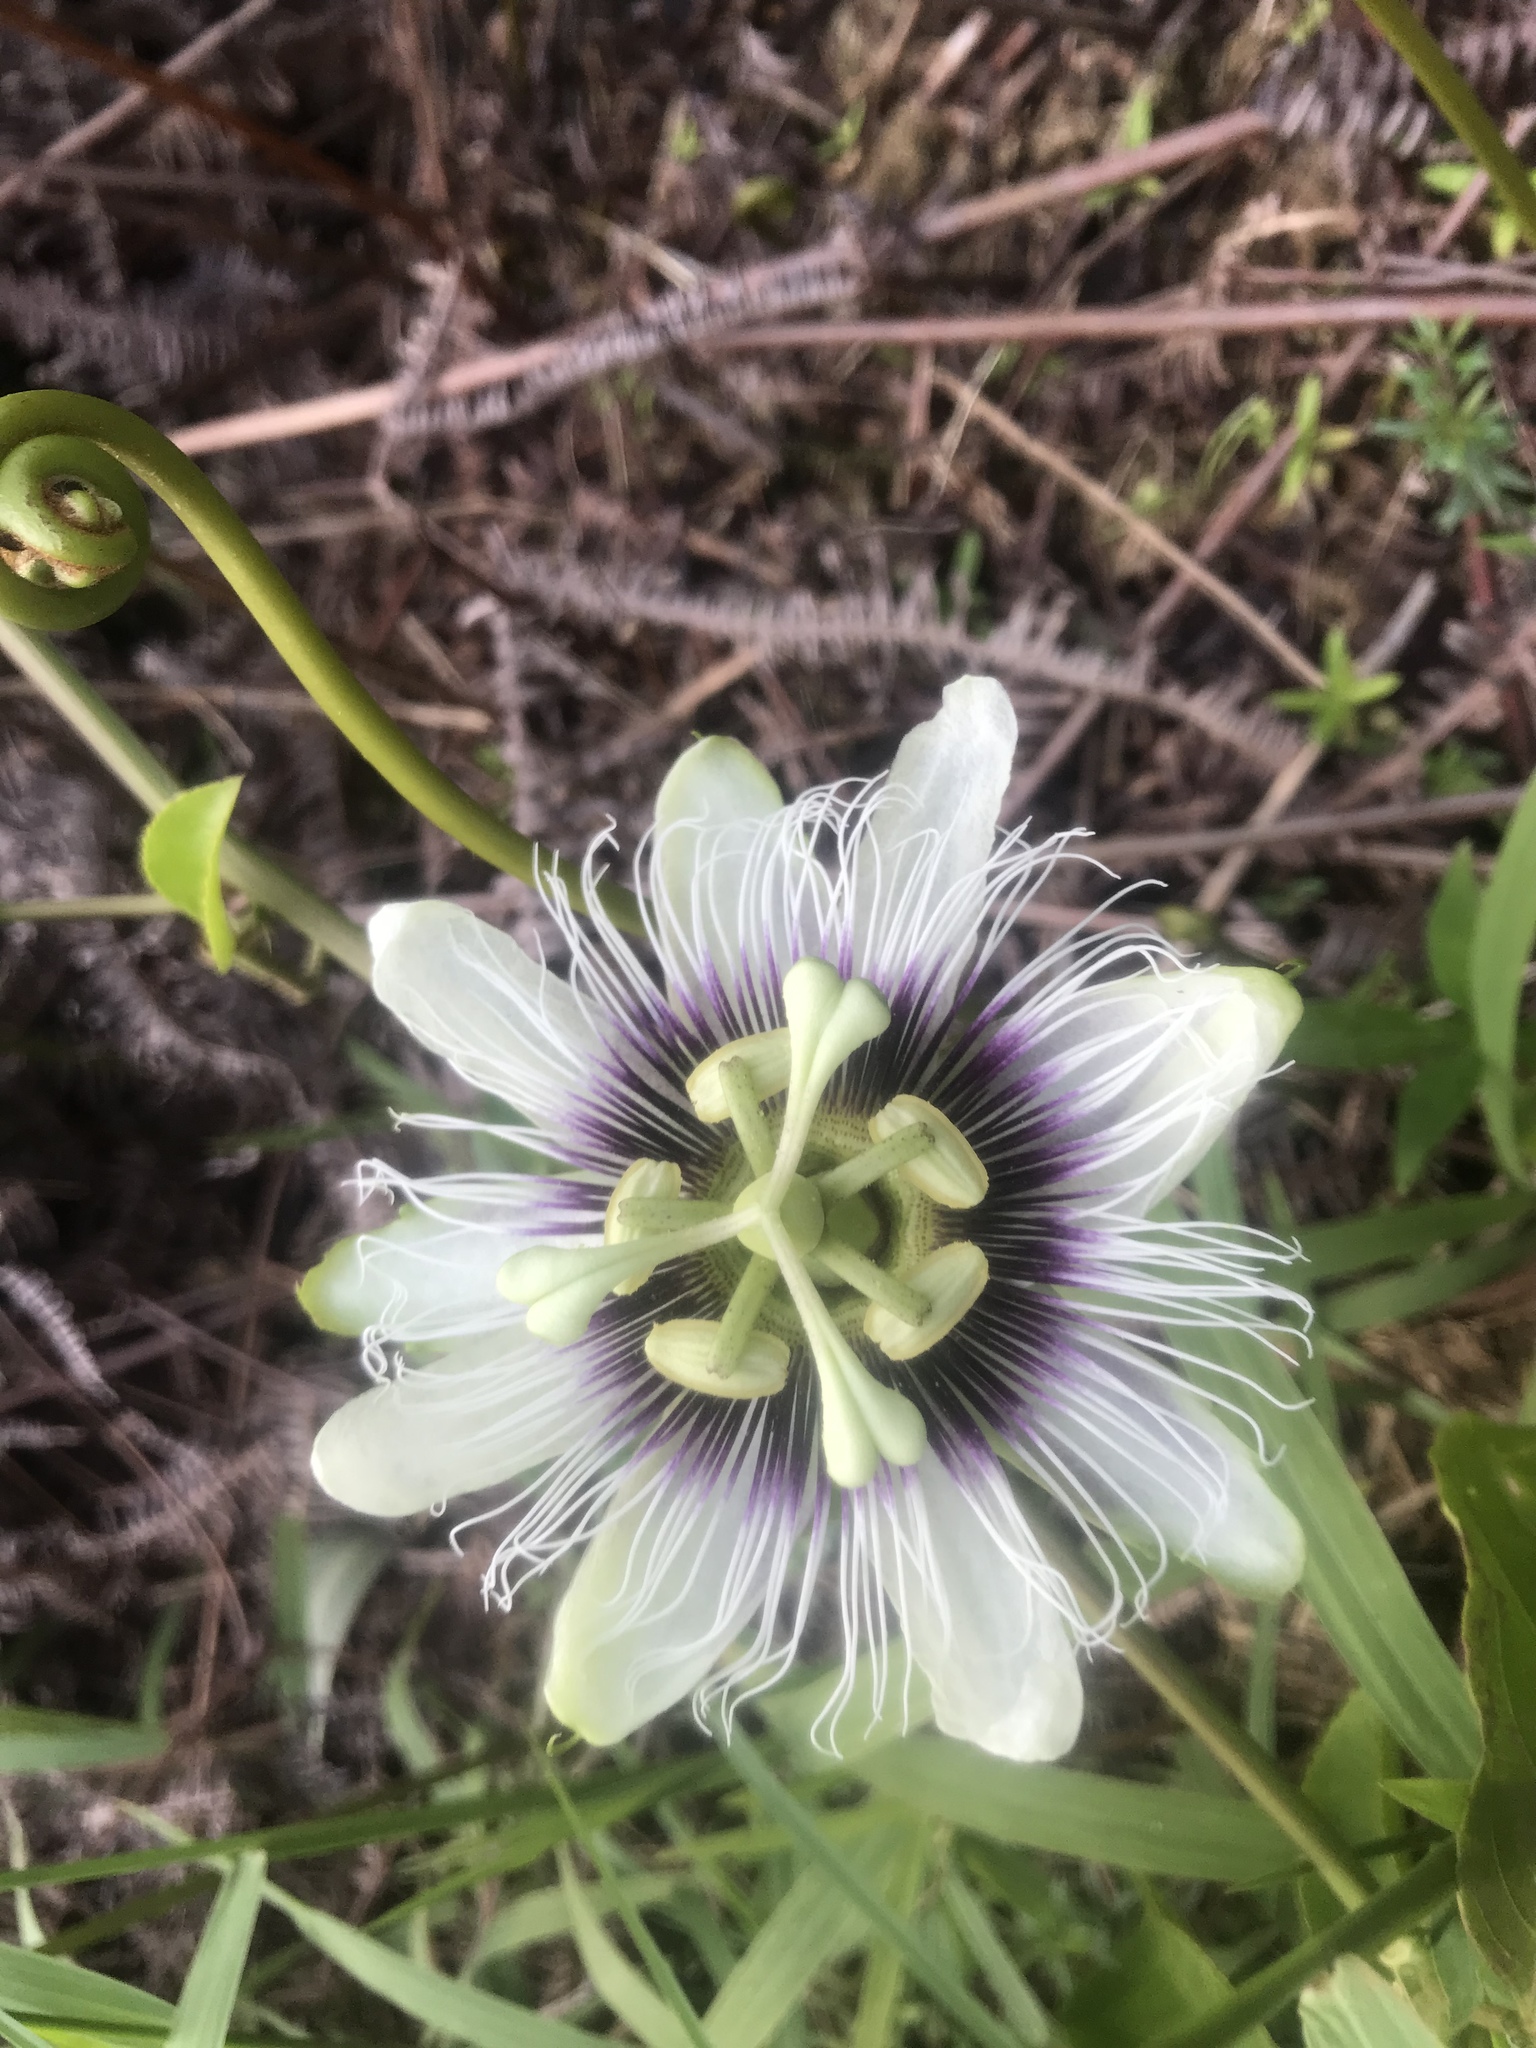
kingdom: Plantae
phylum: Tracheophyta
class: Magnoliopsida
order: Malpighiales
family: Passifloraceae
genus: Passiflora
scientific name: Passiflora edulis
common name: Purple granadilla
